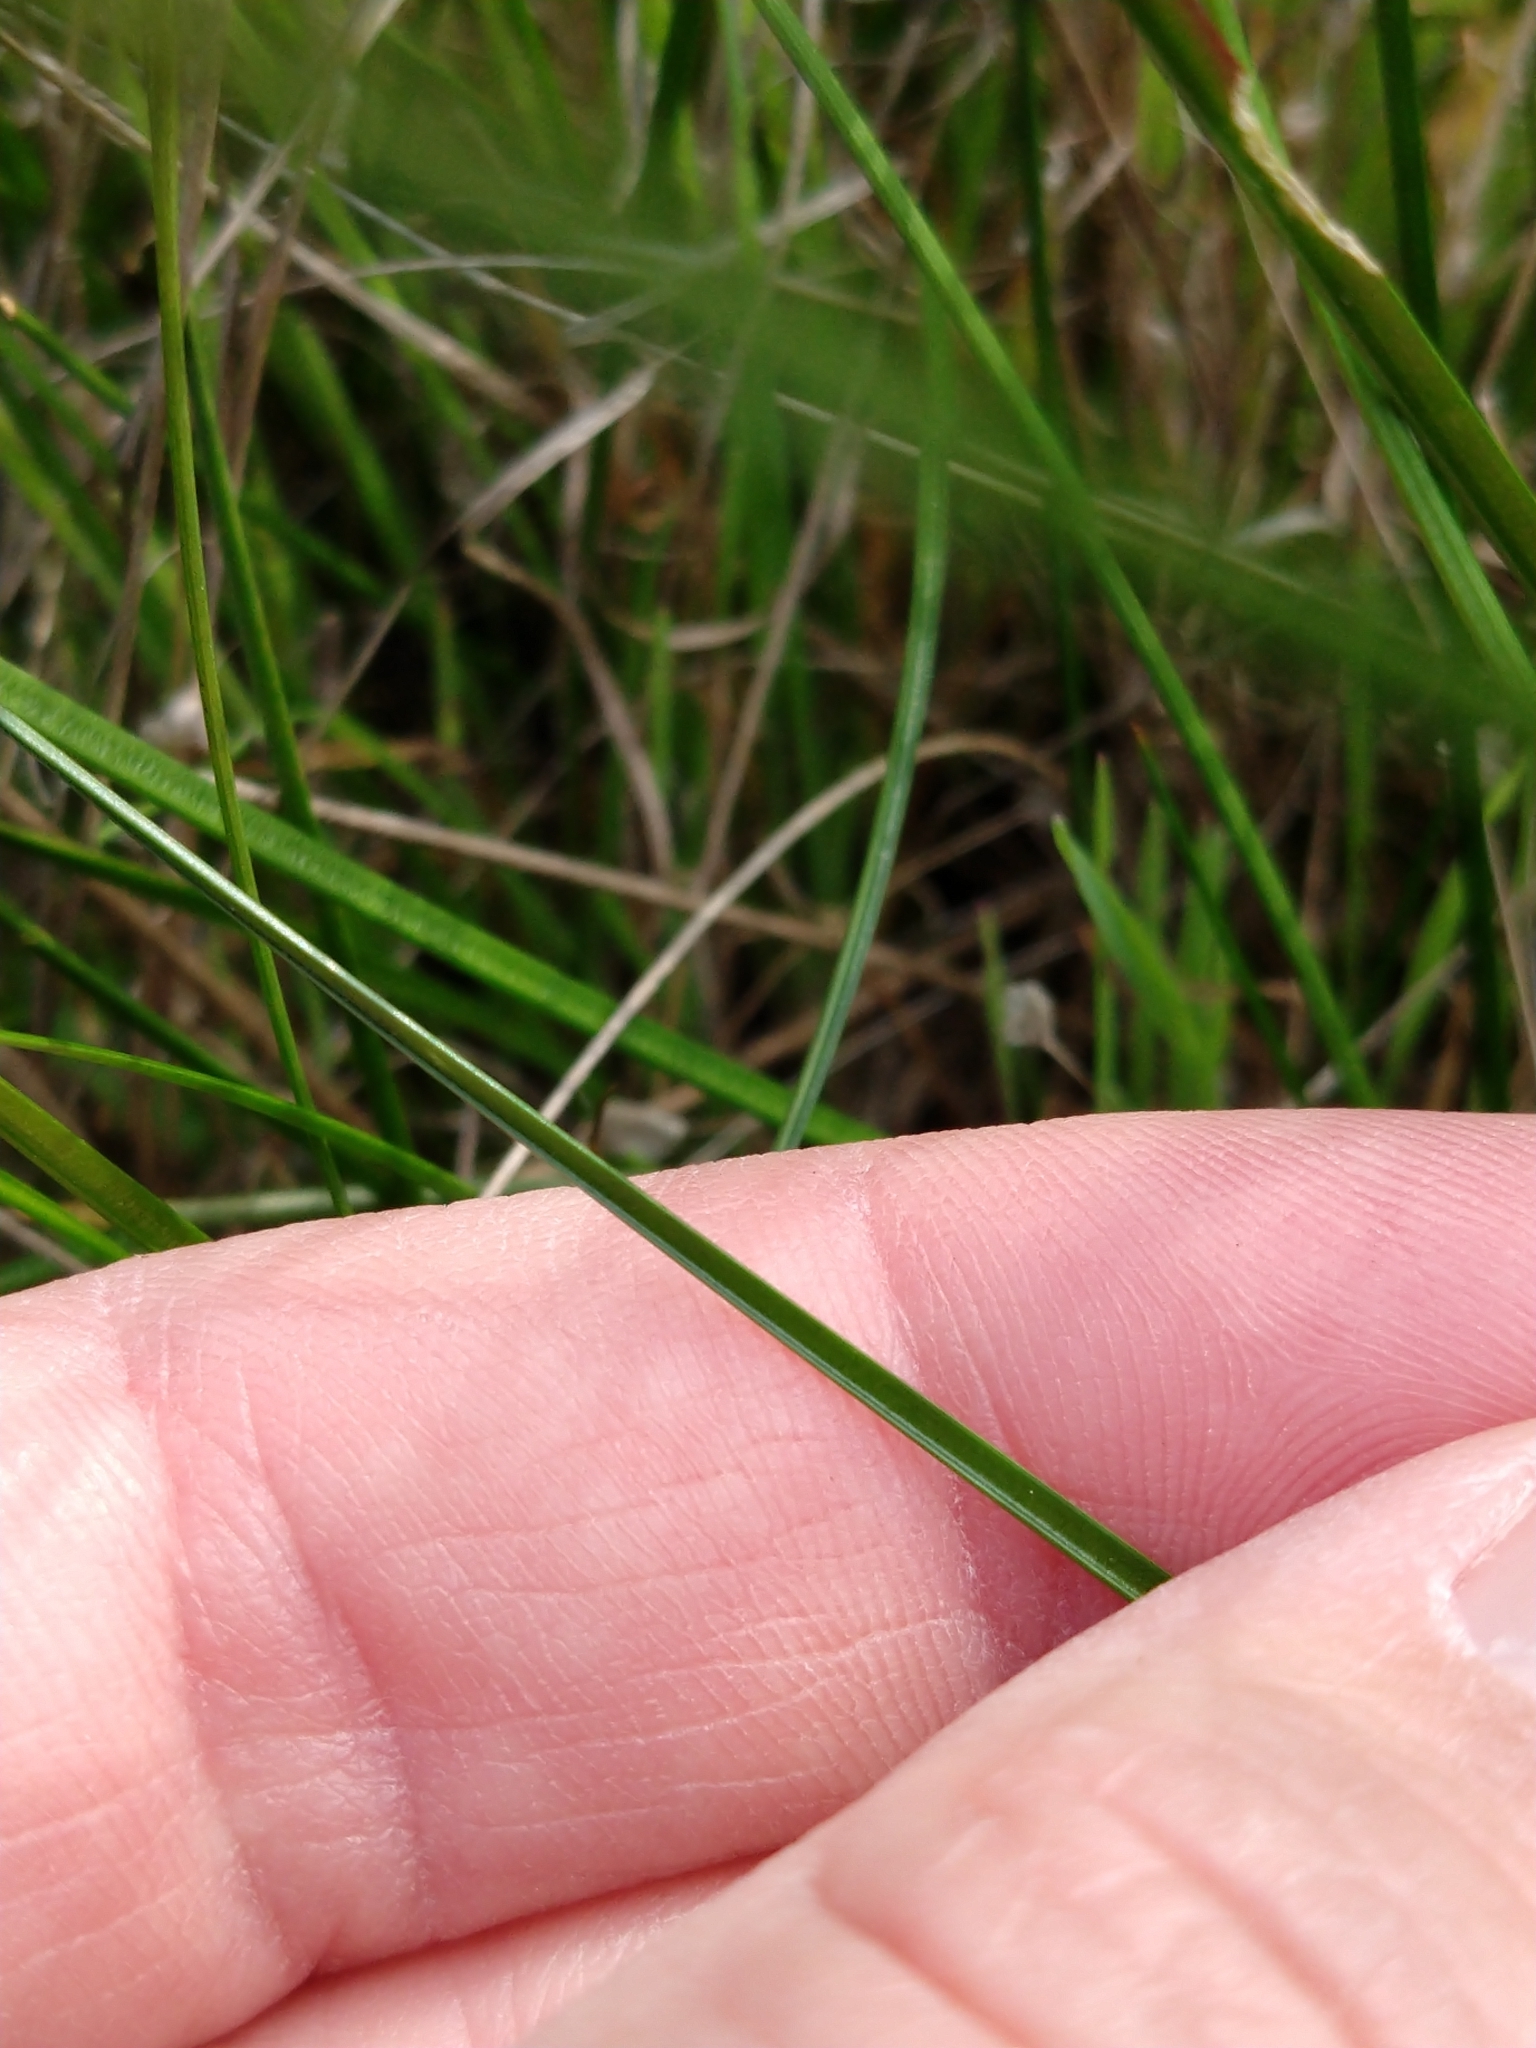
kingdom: Plantae
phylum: Tracheophyta
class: Liliopsida
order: Poales
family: Juncaceae
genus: Juncus
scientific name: Juncus occidentalis
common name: Western rush
